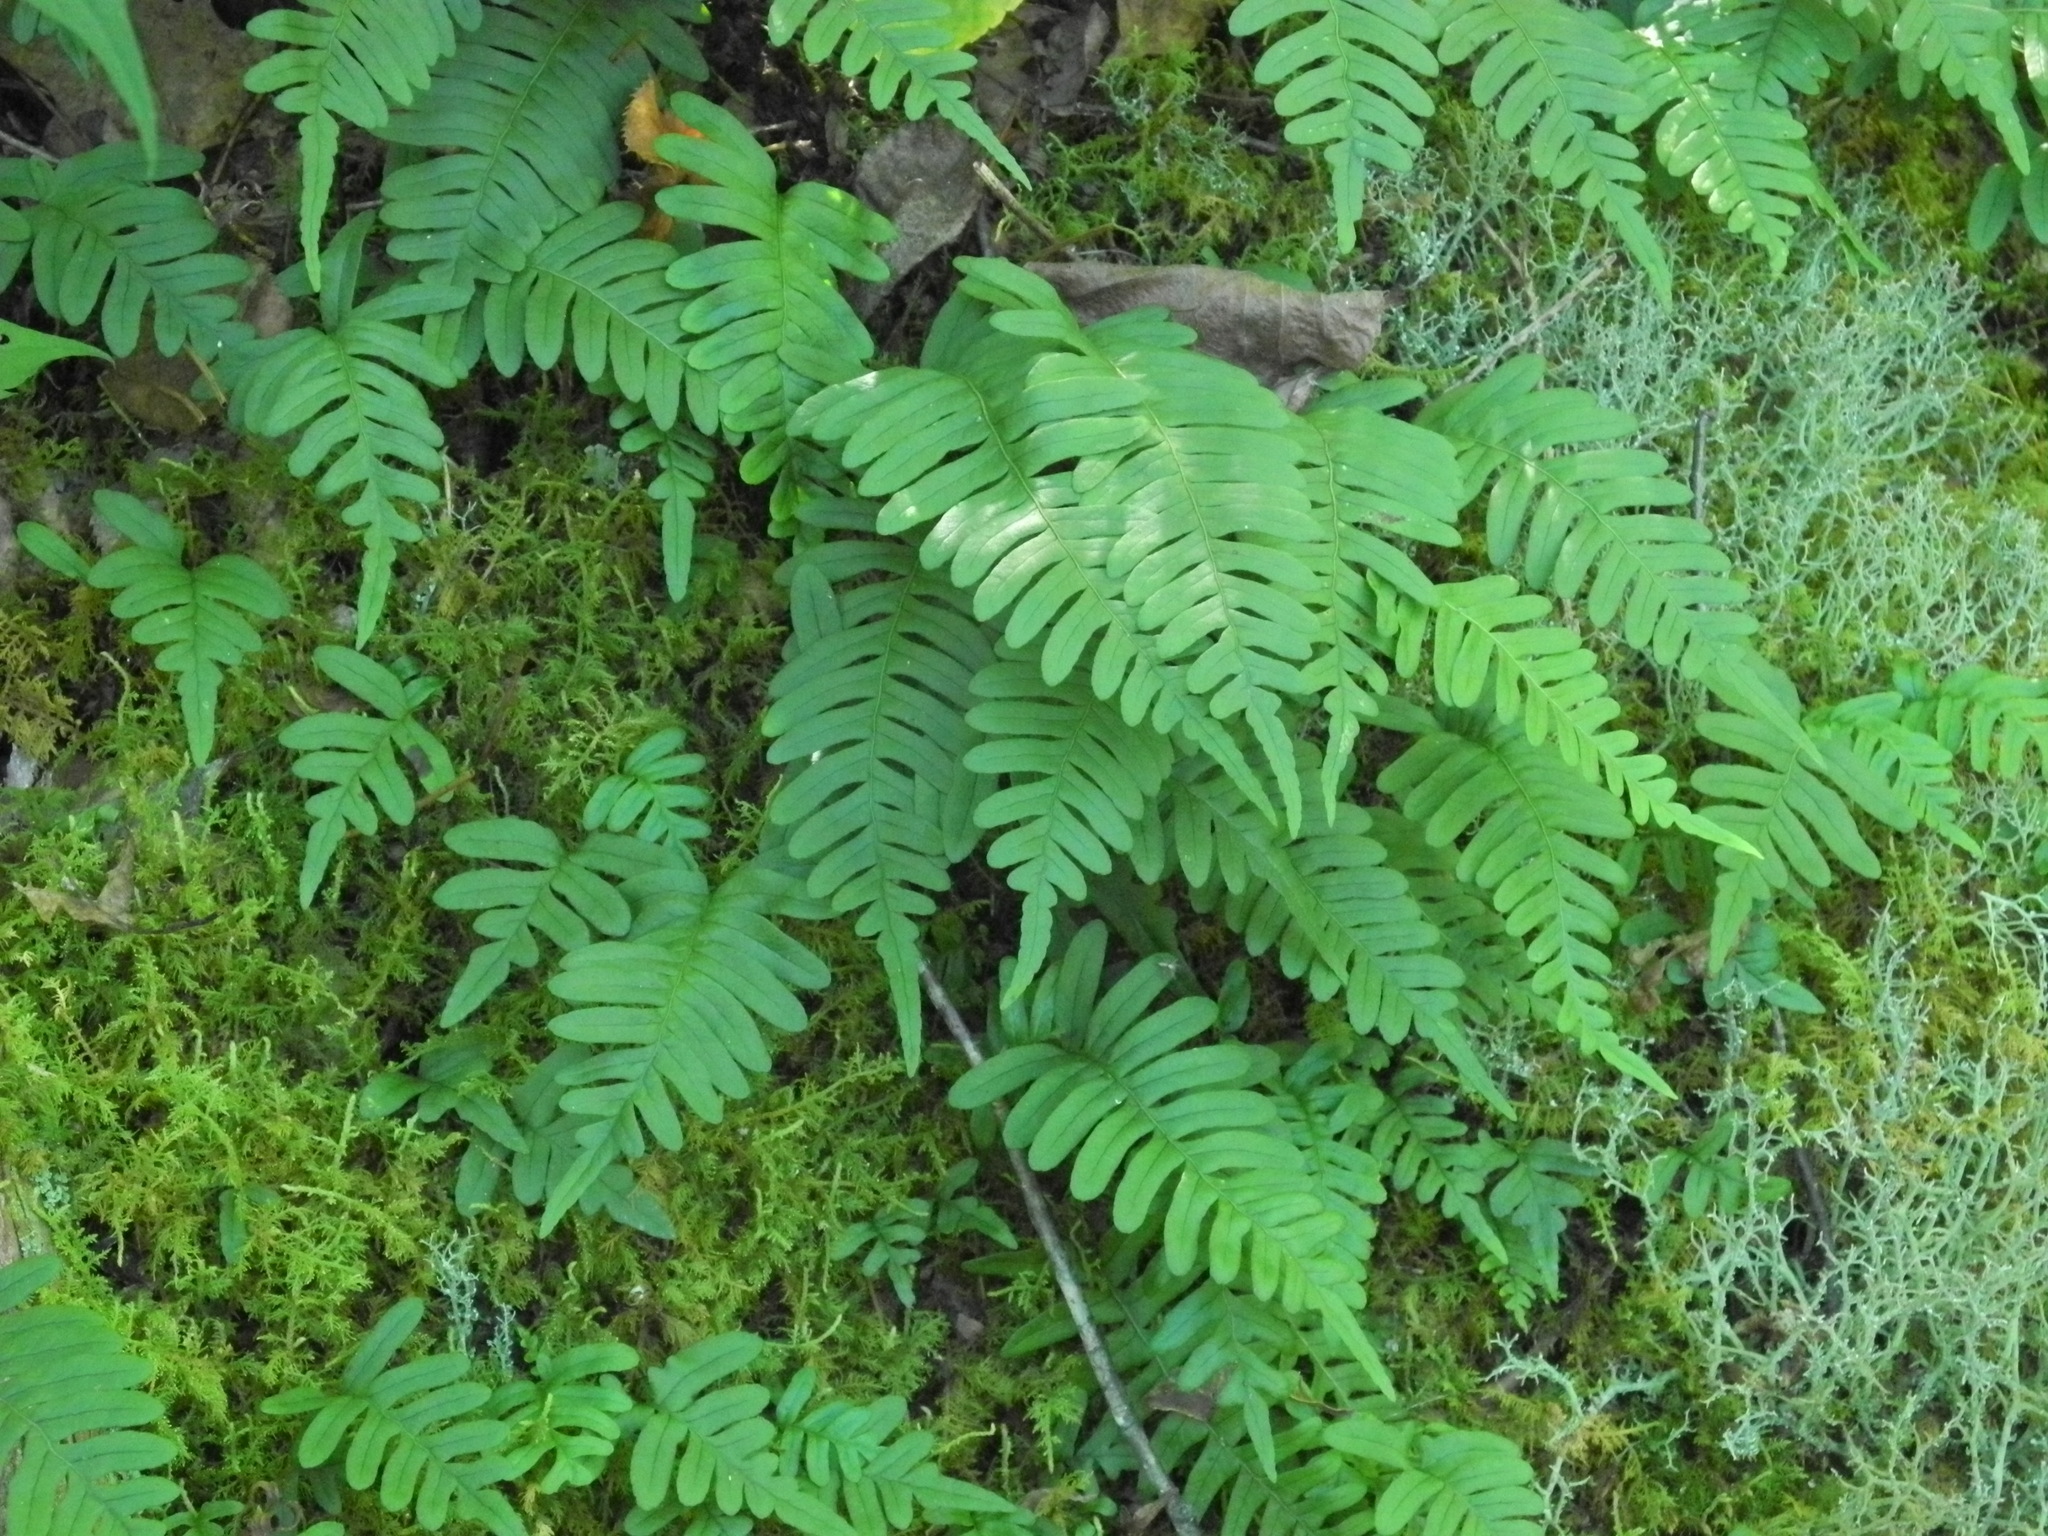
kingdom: Plantae
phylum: Tracheophyta
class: Polypodiopsida
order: Polypodiales
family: Polypodiaceae
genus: Polypodium
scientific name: Polypodium virginianum
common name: American wall fern
